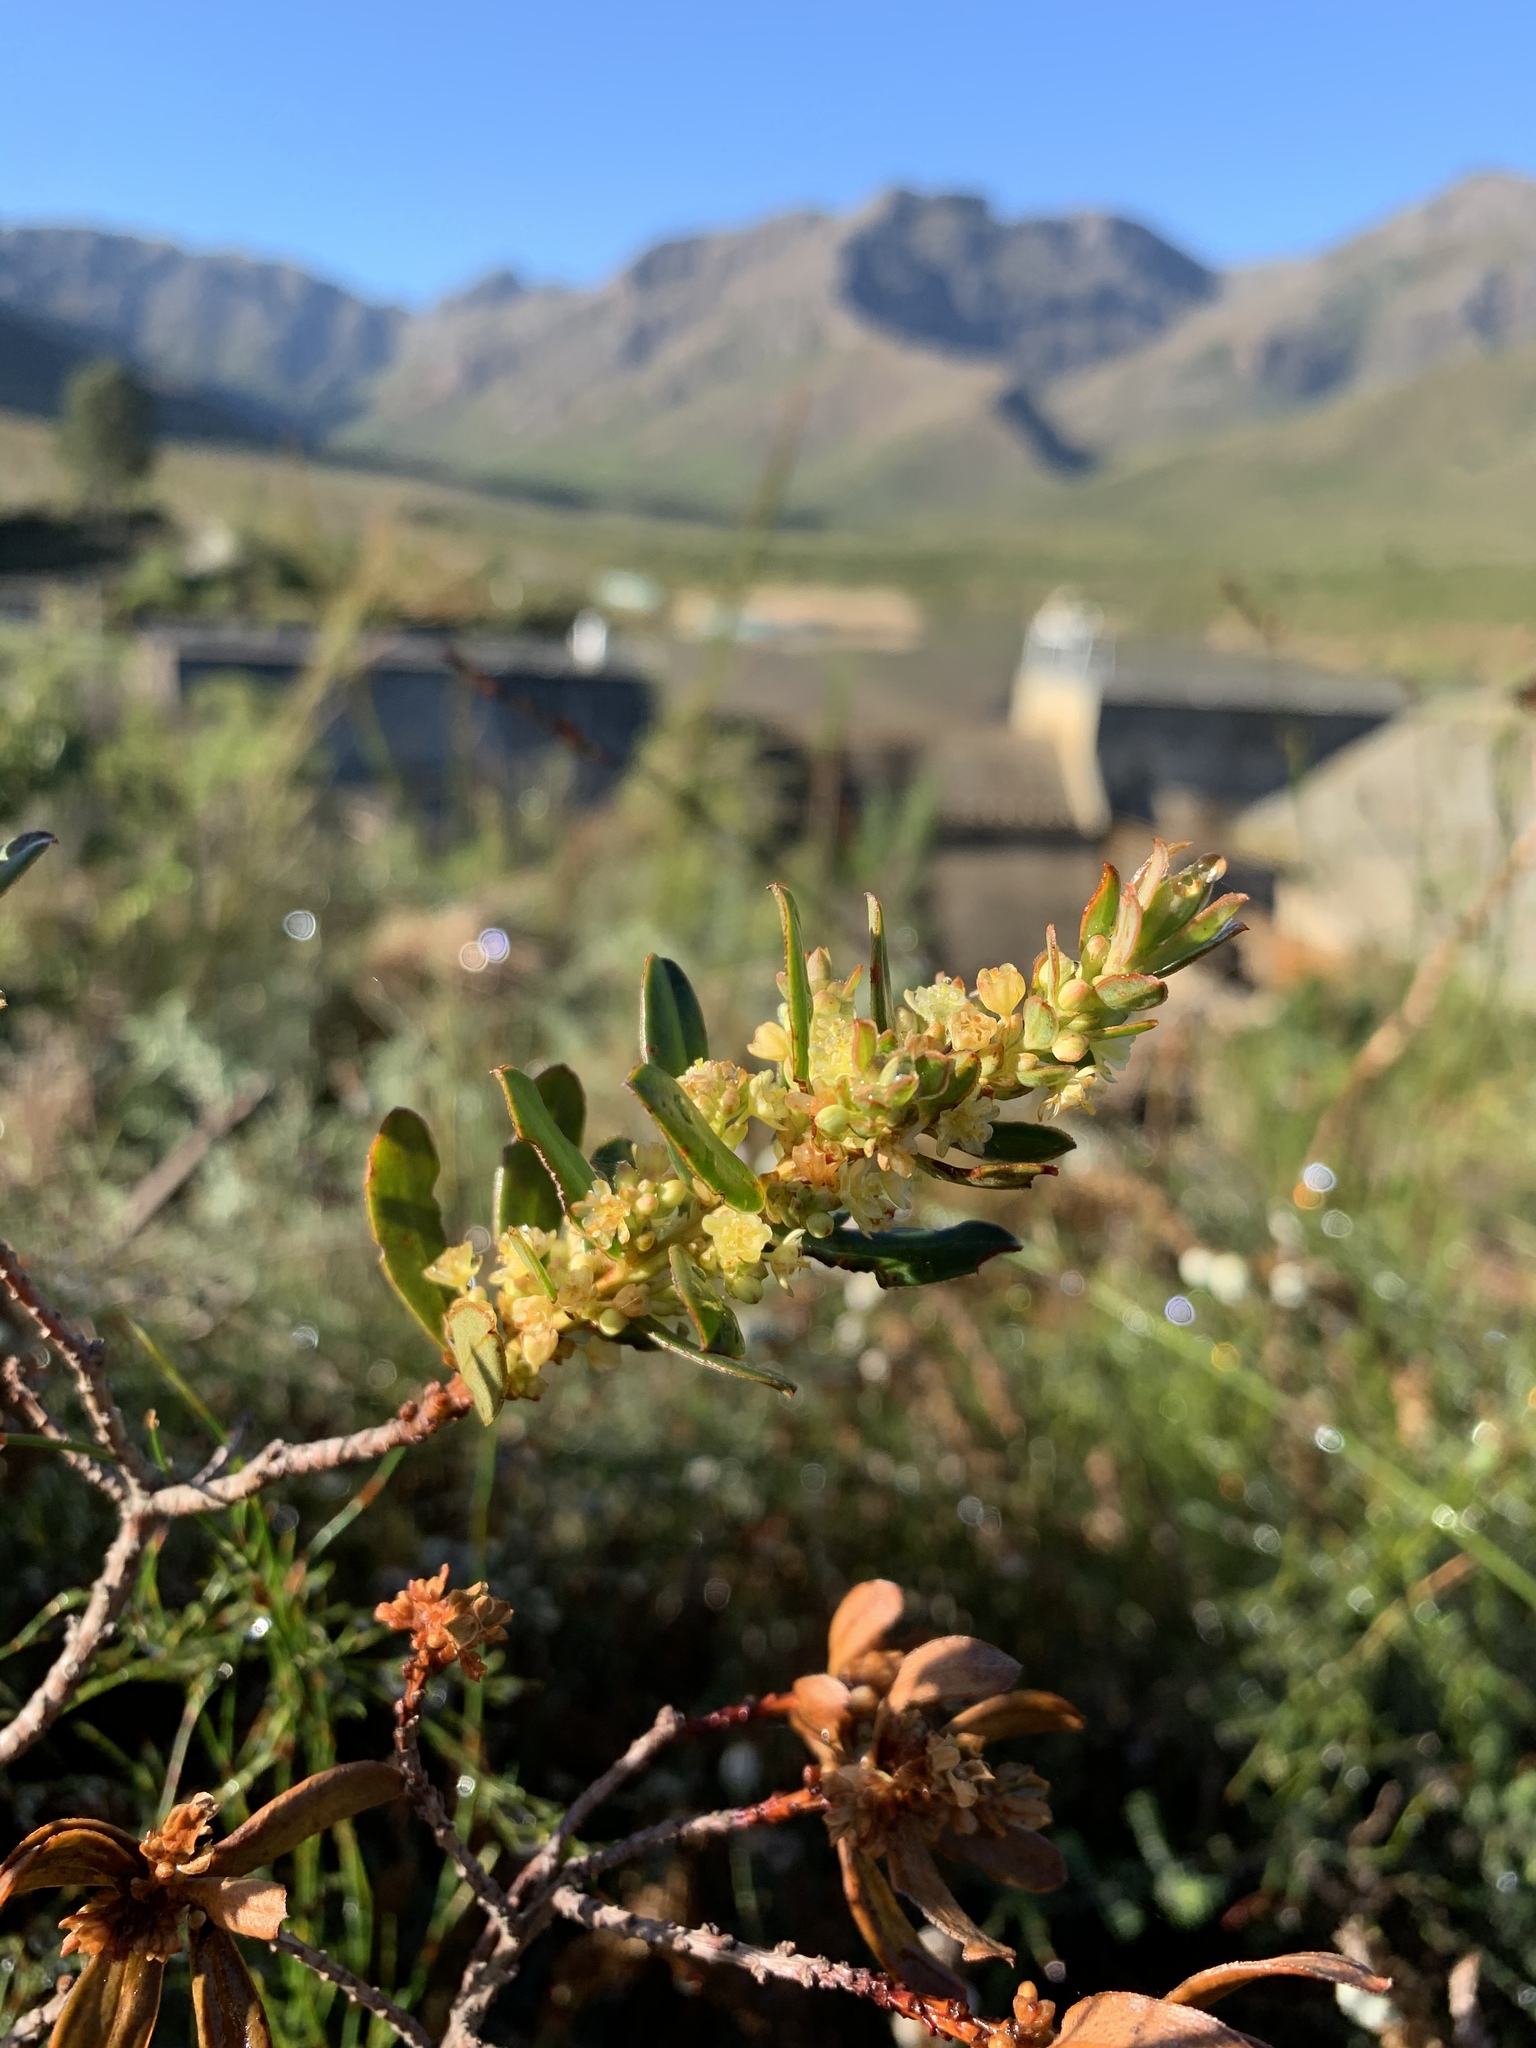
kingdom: Plantae
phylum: Tracheophyta
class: Magnoliopsida
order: Malpighiales
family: Peraceae
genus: Clutia
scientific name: Clutia alaternoides
